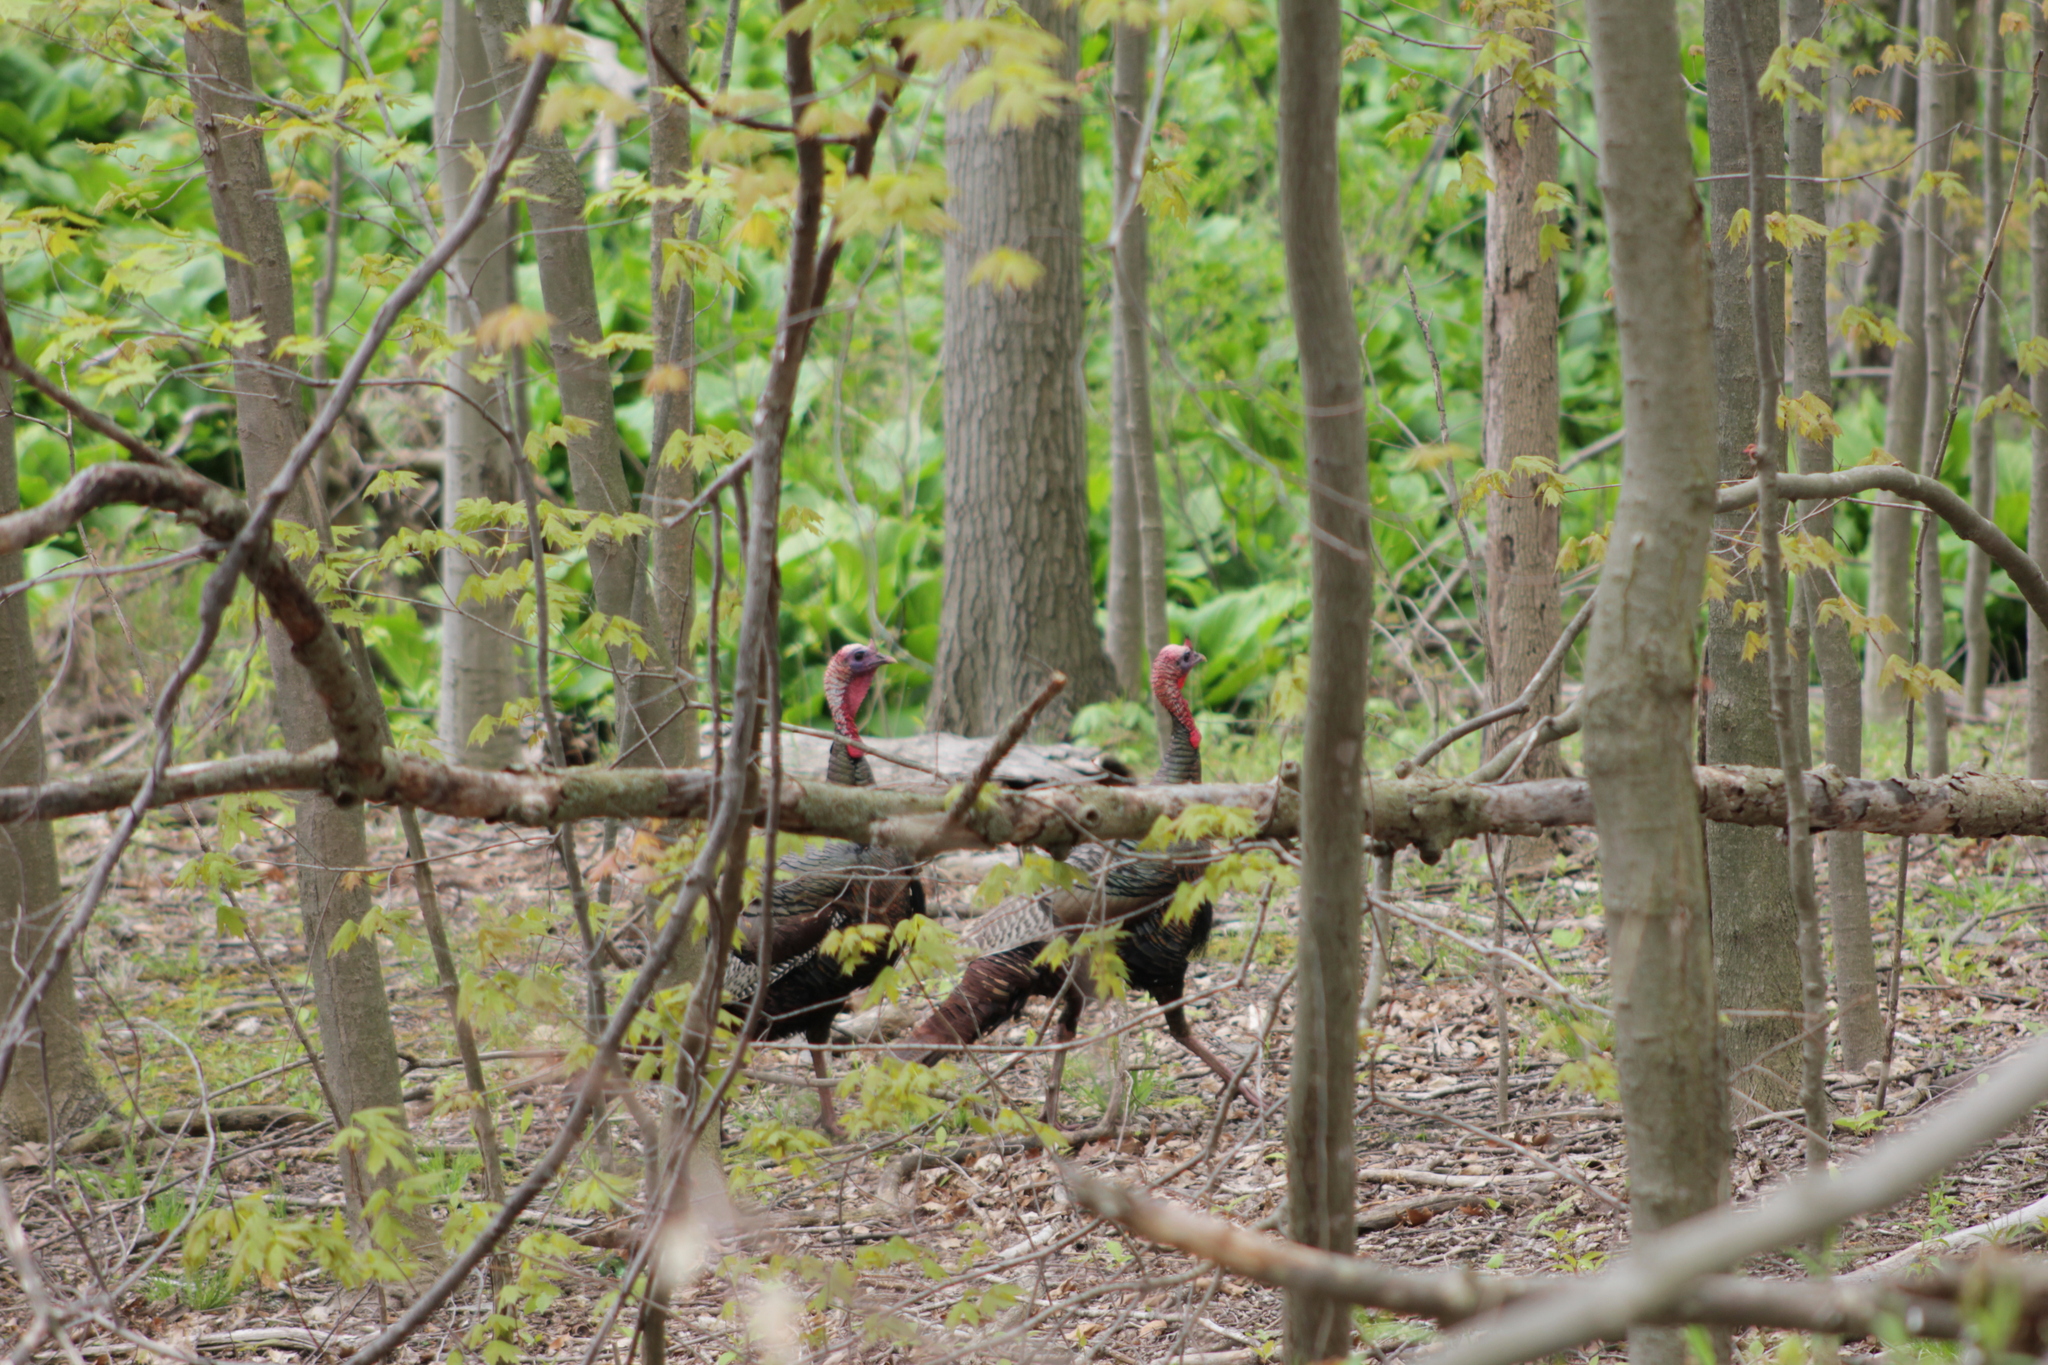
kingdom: Animalia
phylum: Chordata
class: Aves
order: Galliformes
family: Phasianidae
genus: Meleagris
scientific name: Meleagris gallopavo
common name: Wild turkey
